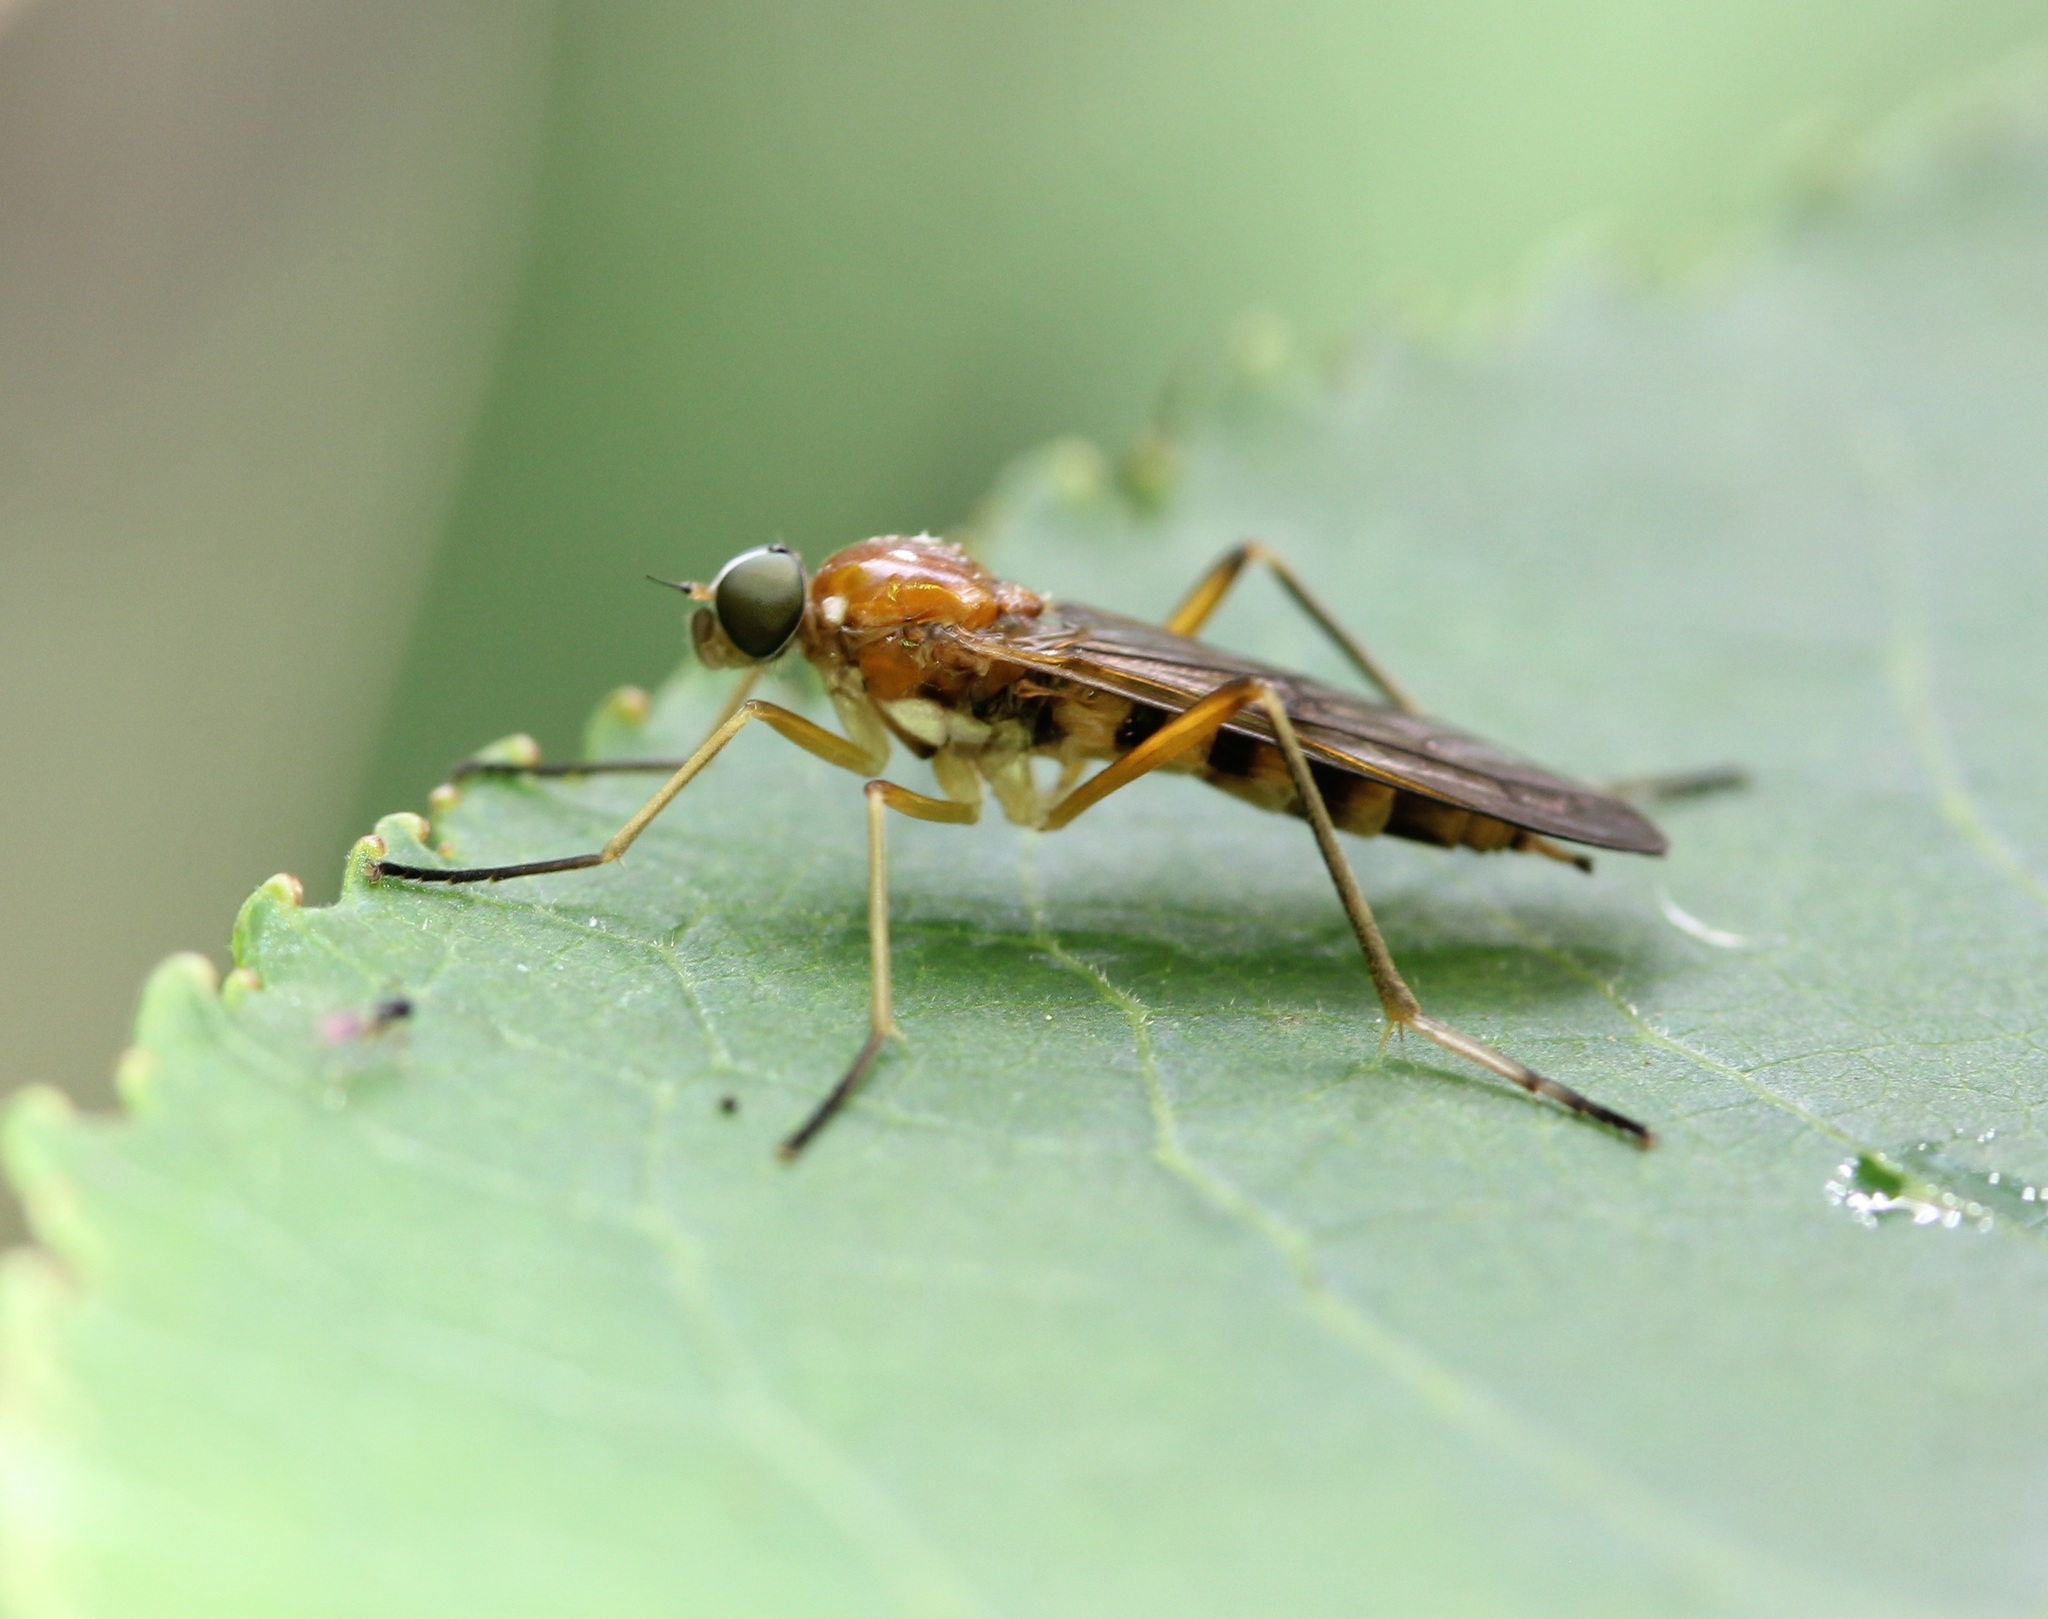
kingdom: Animalia
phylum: Arthropoda
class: Insecta
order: Diptera
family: Xylophagidae
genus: Dialysis
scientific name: Dialysis elongata
